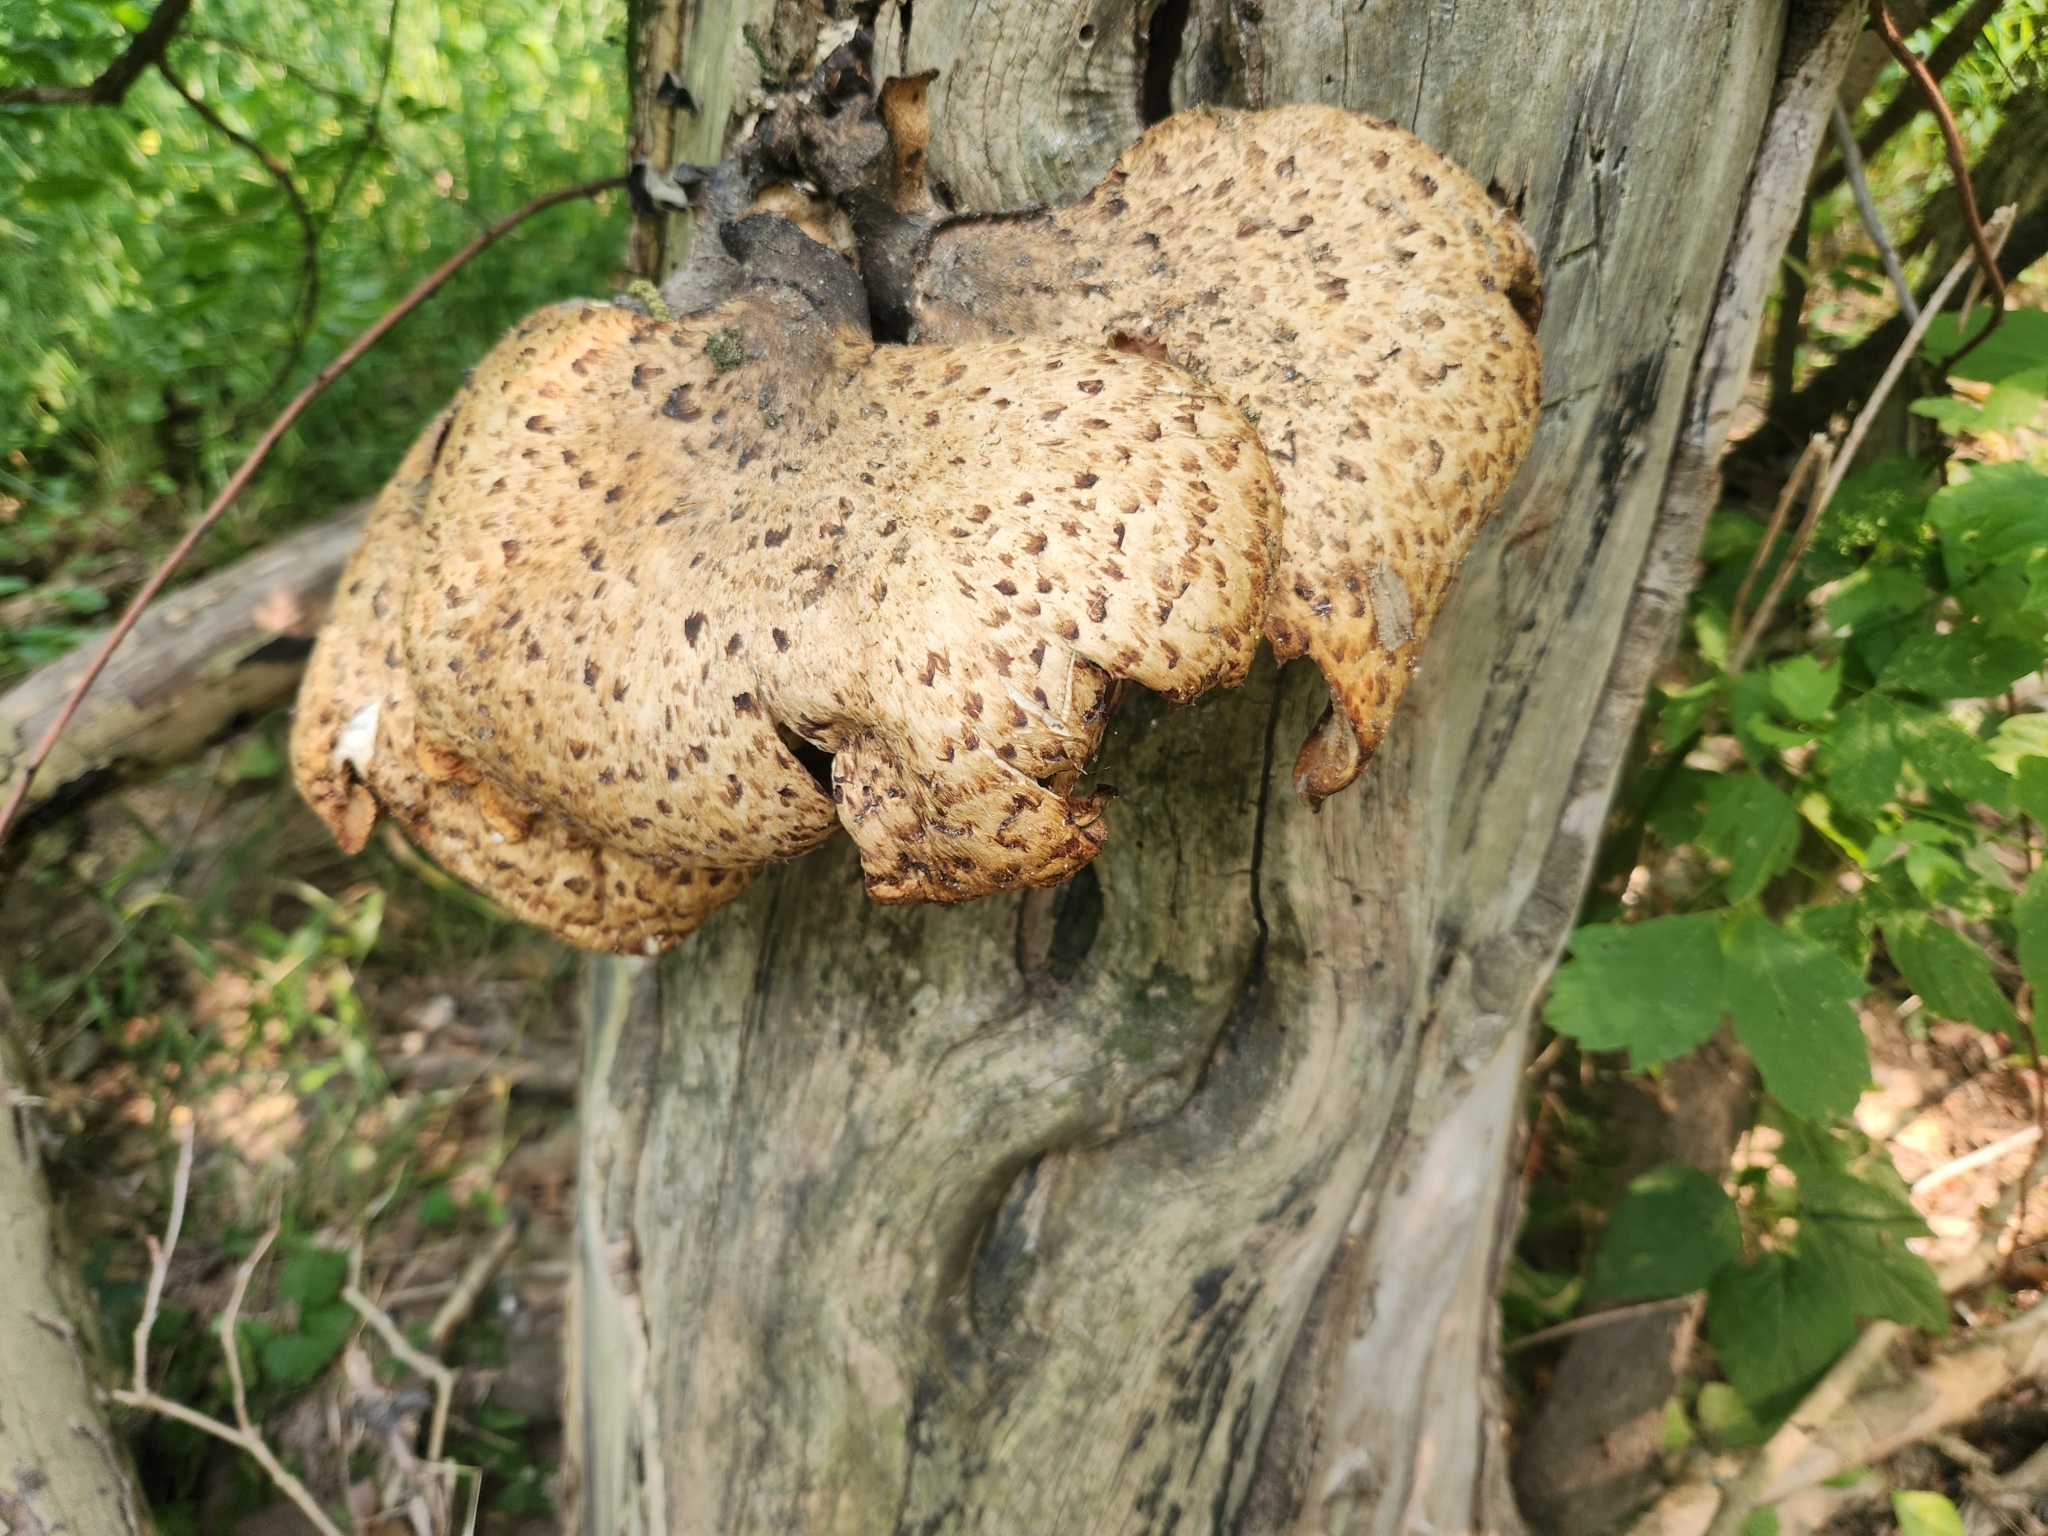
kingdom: Fungi
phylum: Basidiomycota
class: Agaricomycetes
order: Polyporales
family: Polyporaceae
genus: Cerioporus
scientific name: Cerioporus squamosus
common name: Dryad's saddle
